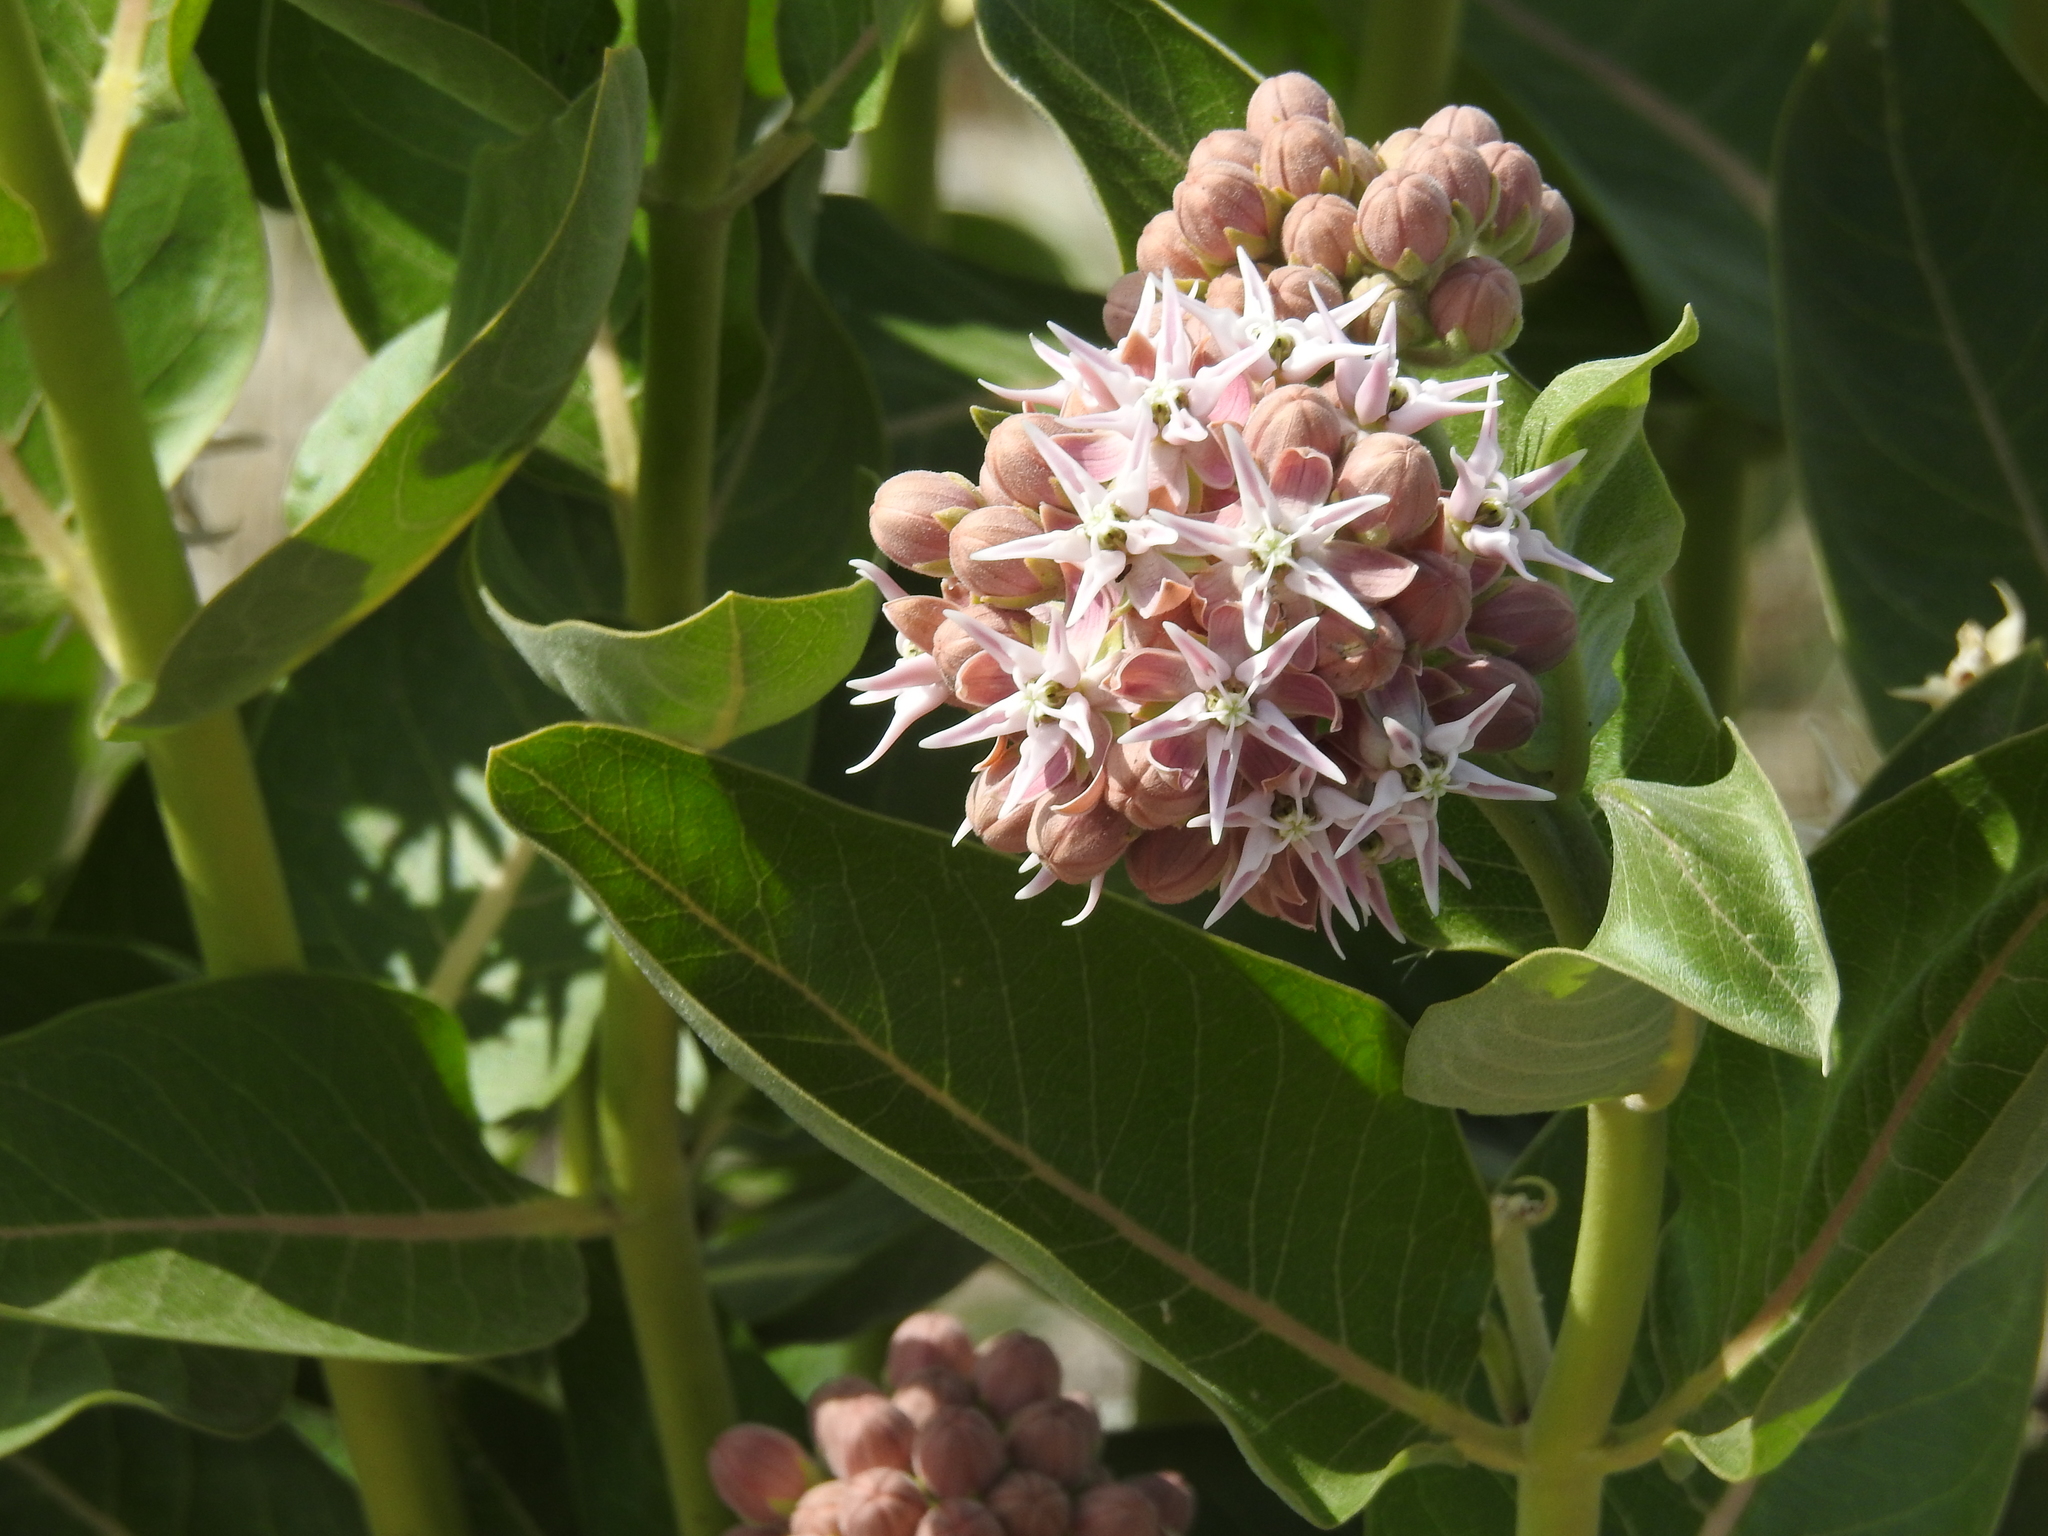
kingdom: Plantae
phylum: Tracheophyta
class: Magnoliopsida
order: Gentianales
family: Apocynaceae
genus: Asclepias
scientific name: Asclepias speciosa
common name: Showy milkweed
